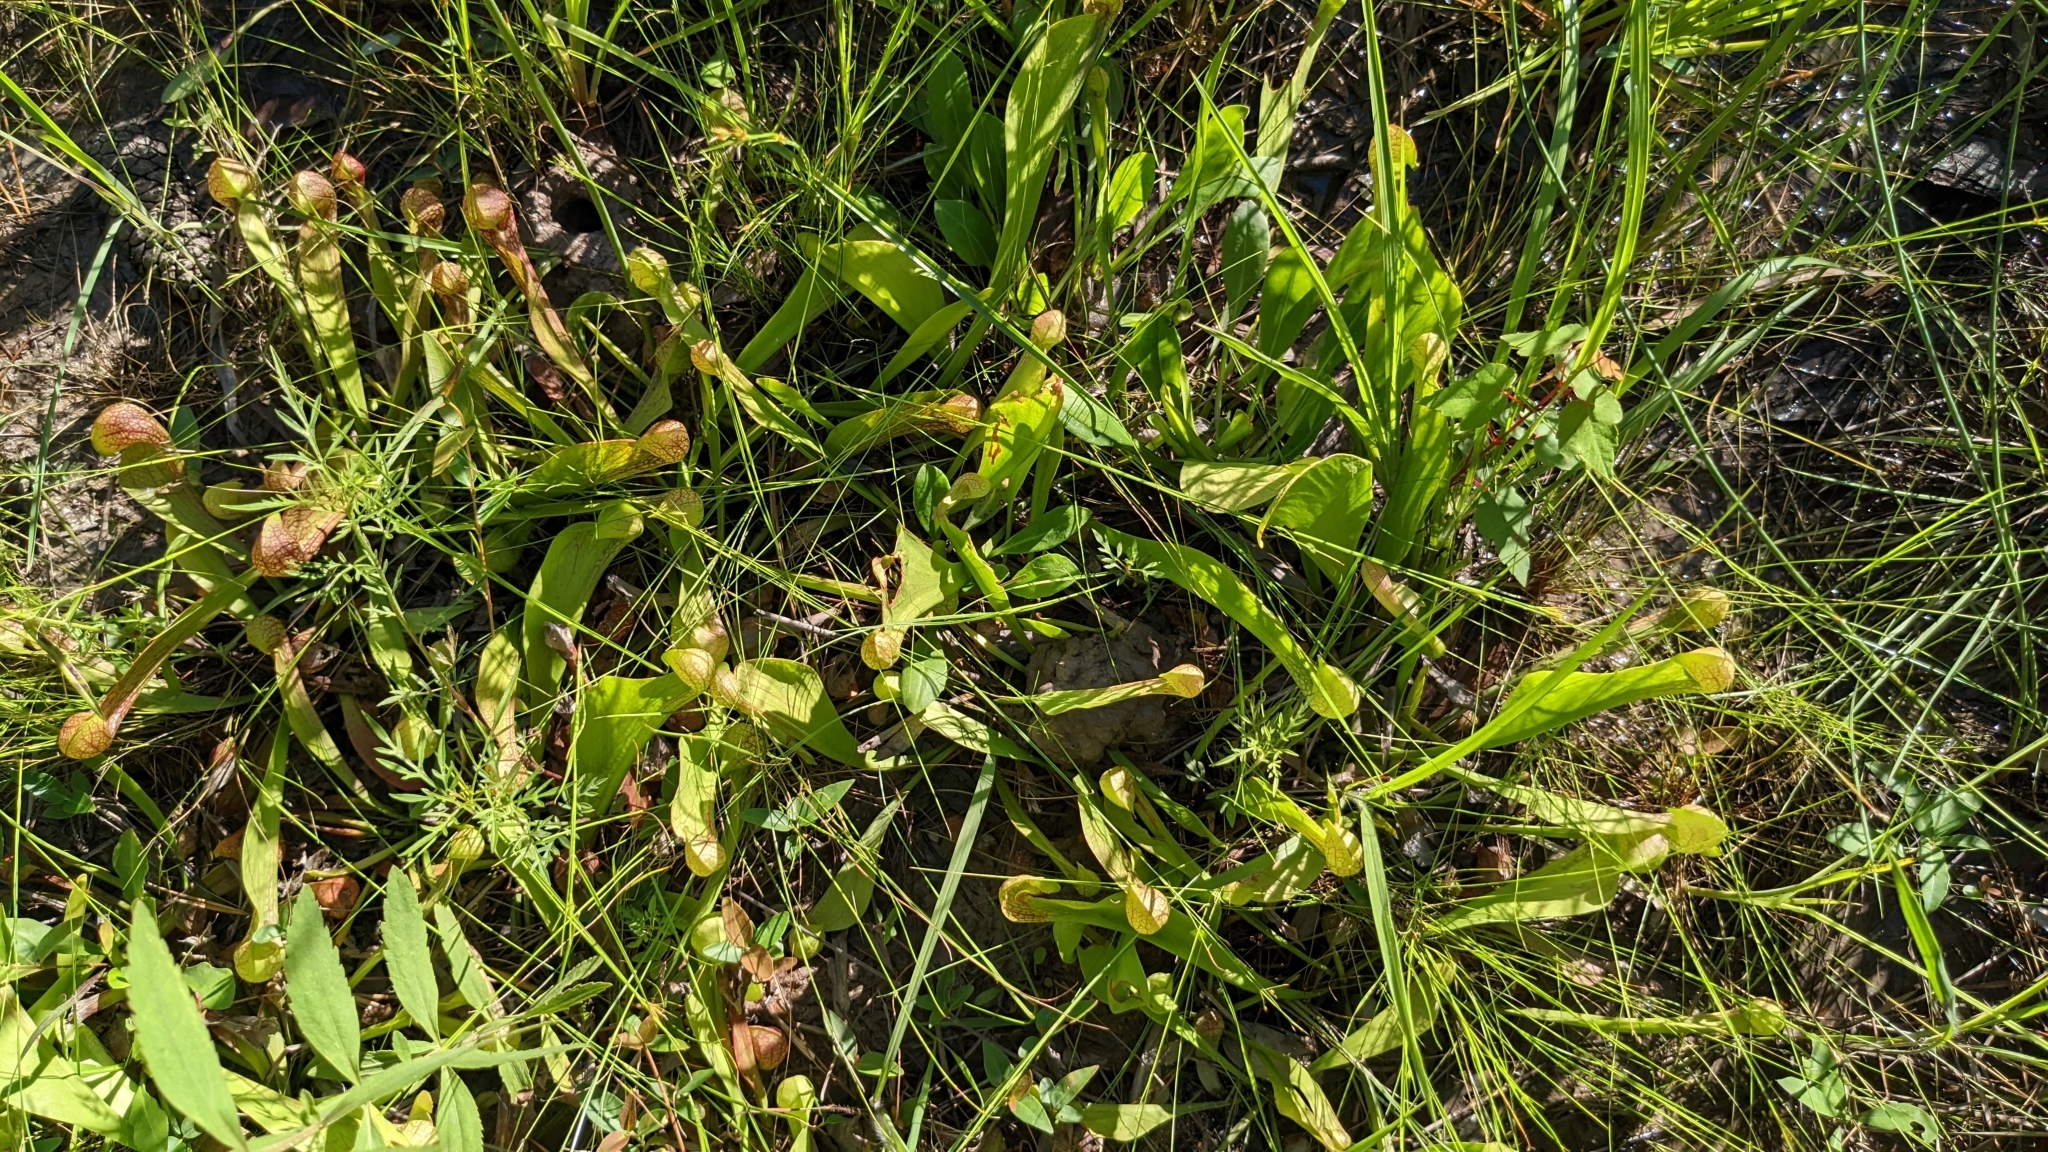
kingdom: Plantae
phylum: Tracheophyta
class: Magnoliopsida
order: Ericales
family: Sarraceniaceae
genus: Sarracenia
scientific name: Sarracenia psittacina
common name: Parrot pitcherplant
